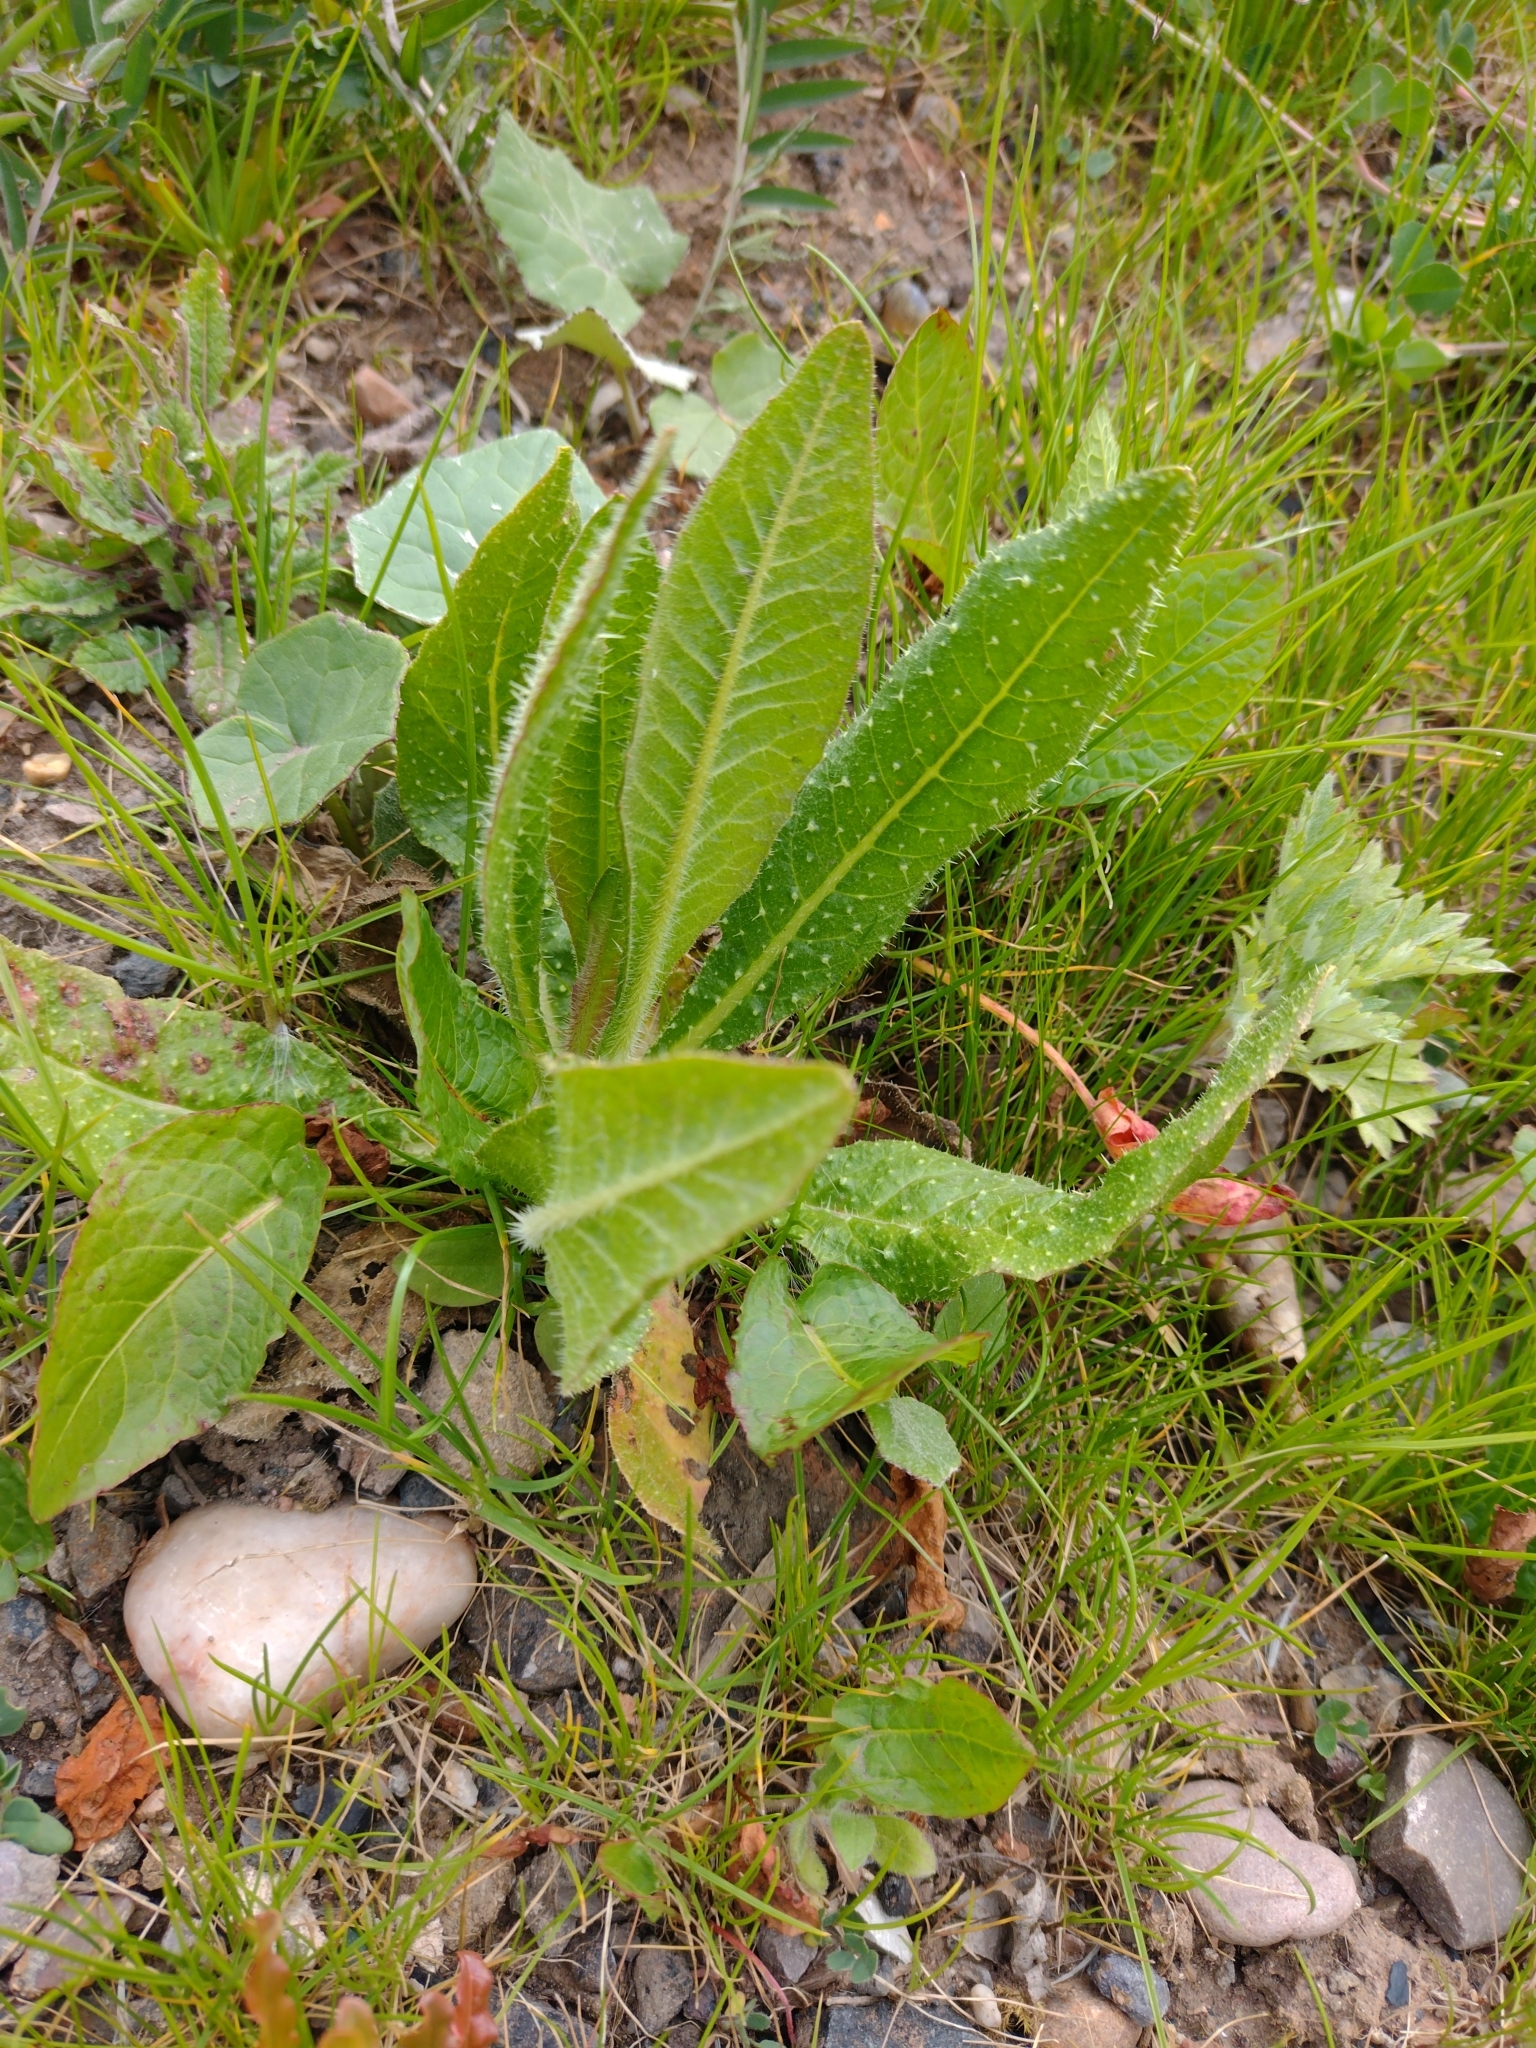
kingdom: Plantae
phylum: Tracheophyta
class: Magnoliopsida
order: Asterales
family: Asteraceae
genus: Helminthotheca
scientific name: Helminthotheca echioides
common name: Ox-tongue
